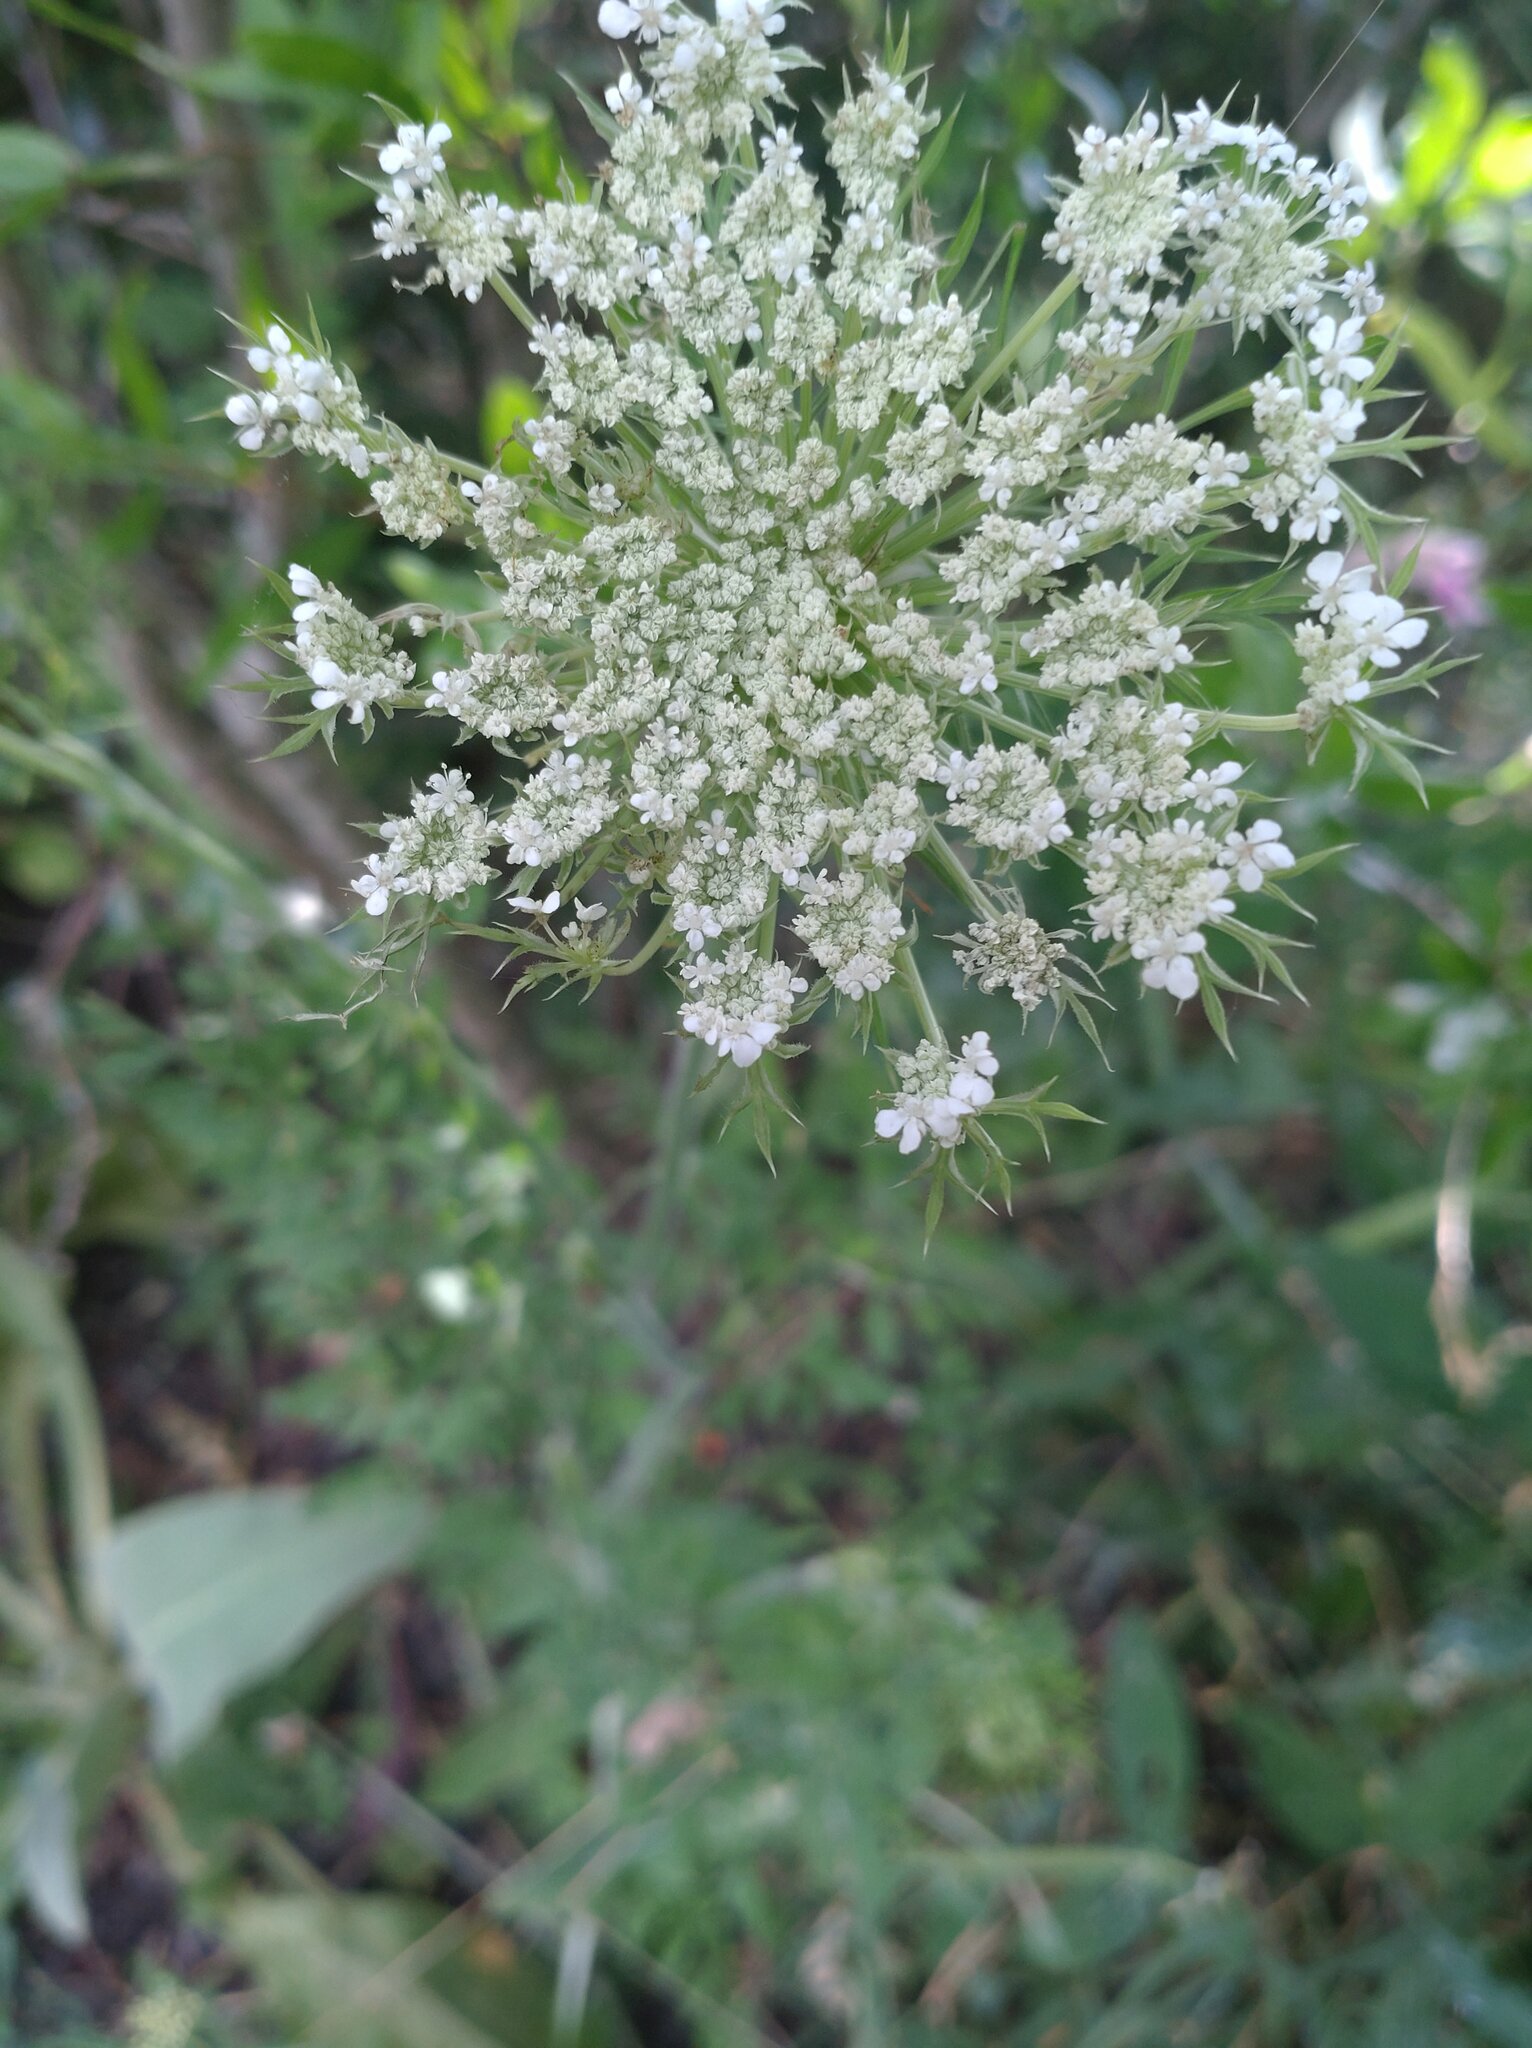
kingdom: Plantae
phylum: Tracheophyta
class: Magnoliopsida
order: Apiales
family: Apiaceae
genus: Daucus
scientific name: Daucus carota
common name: Wild carrot
